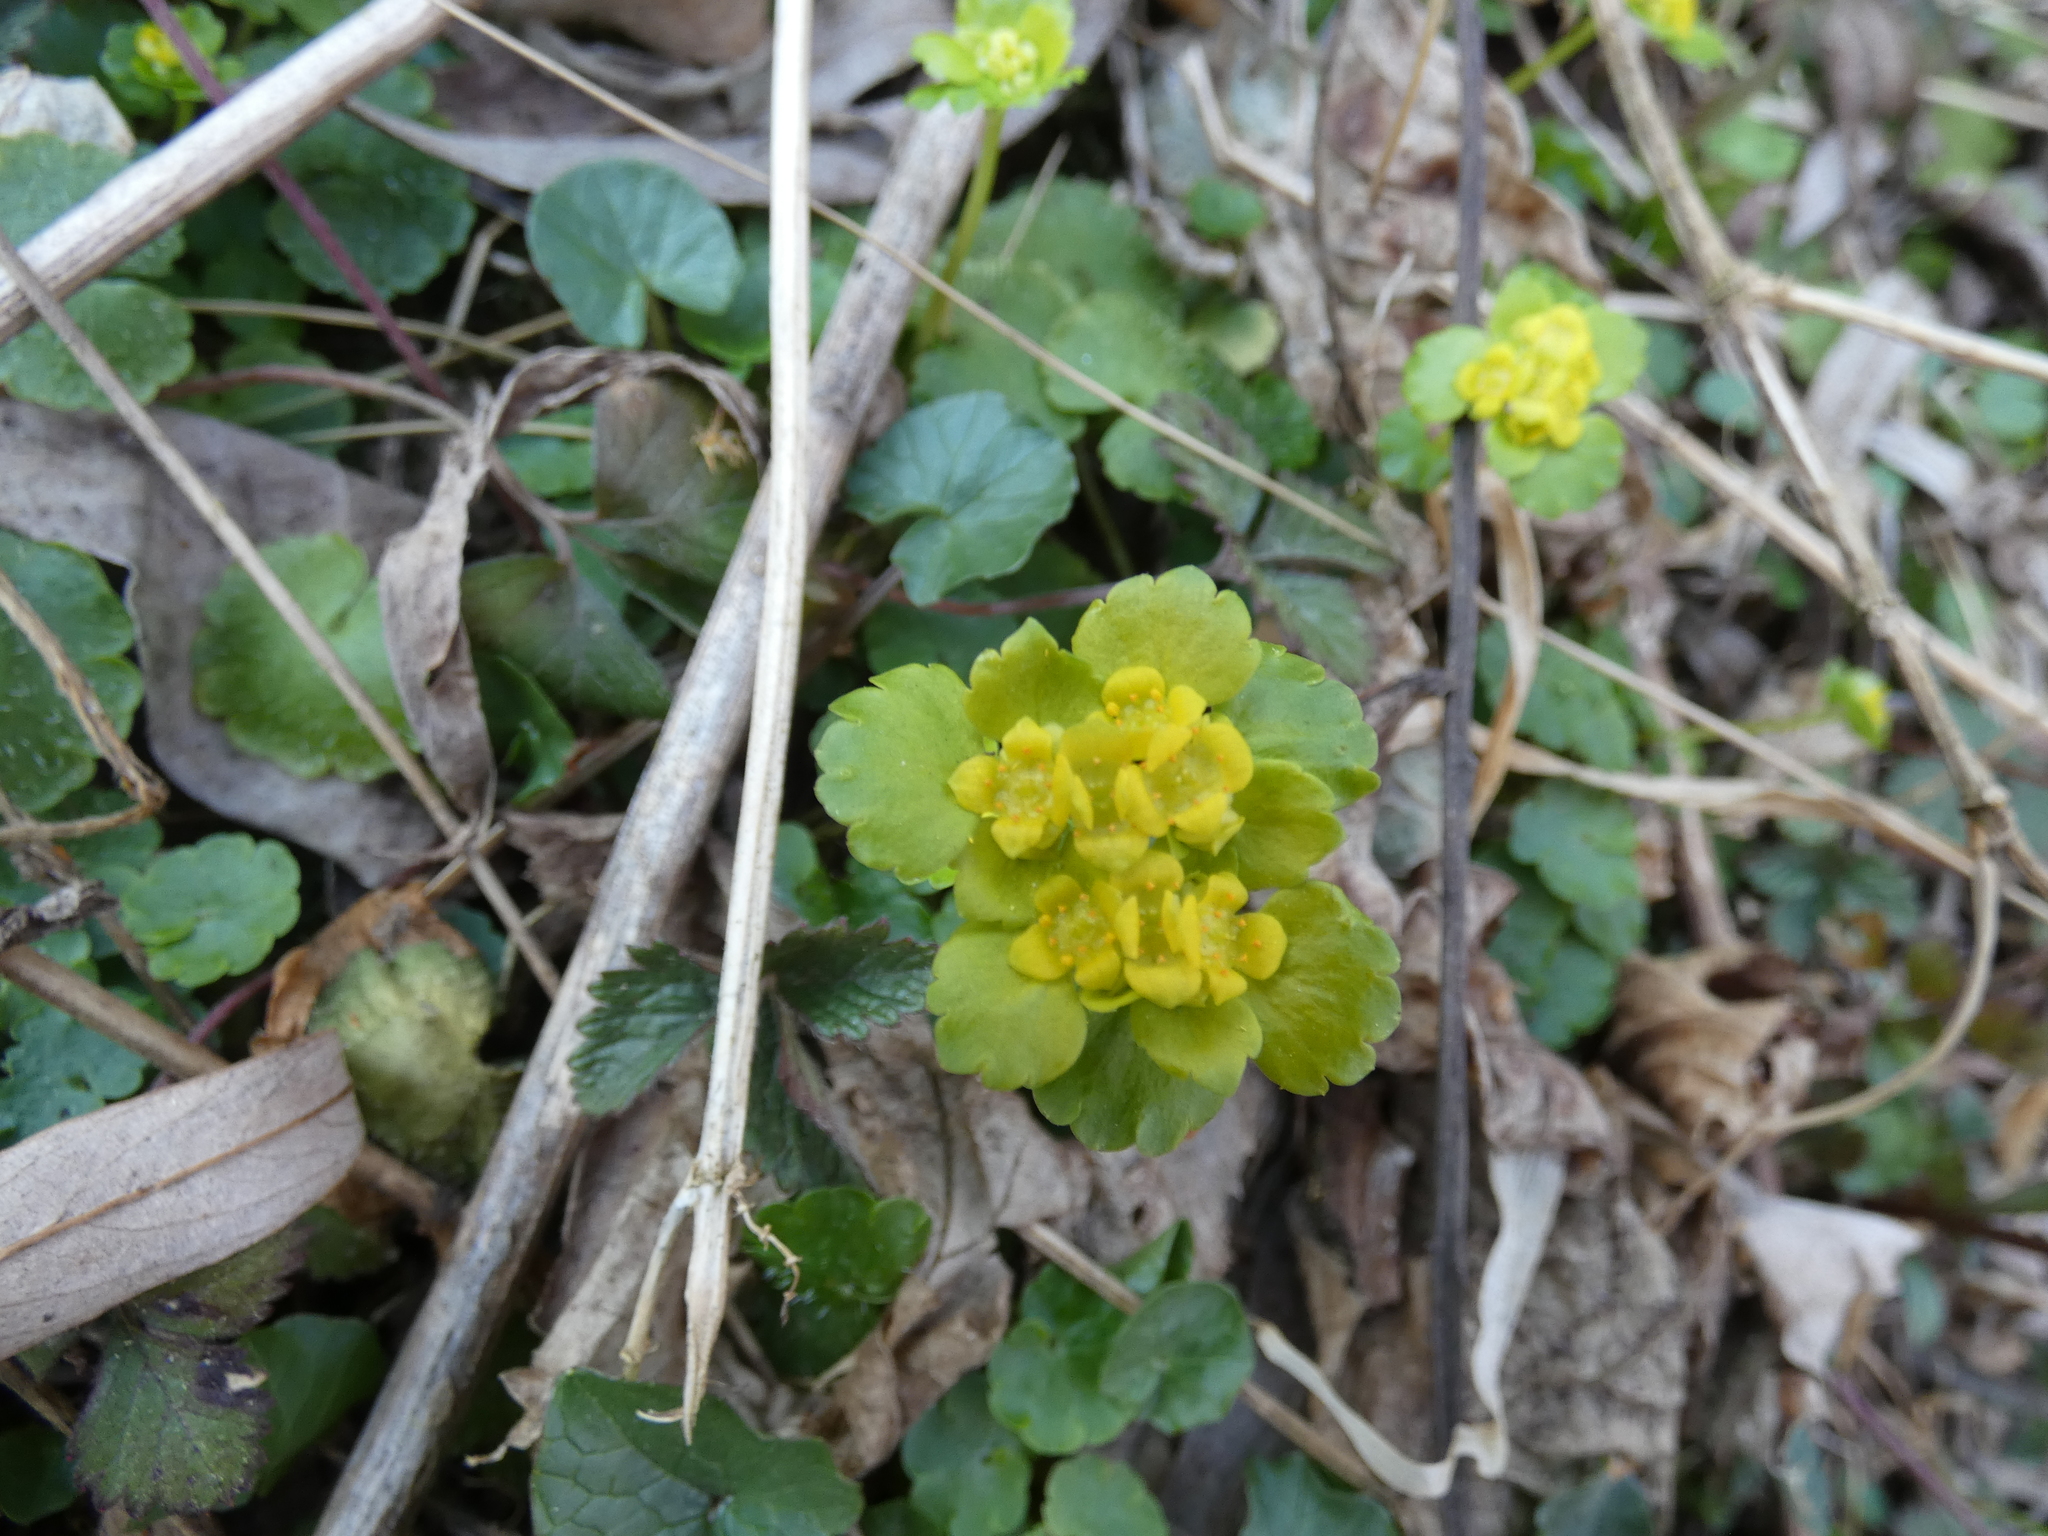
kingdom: Plantae
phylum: Tracheophyta
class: Magnoliopsida
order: Saxifragales
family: Saxifragaceae
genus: Chrysosplenium
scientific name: Chrysosplenium alternifolium
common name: Alternate-leaved golden-saxifrage
